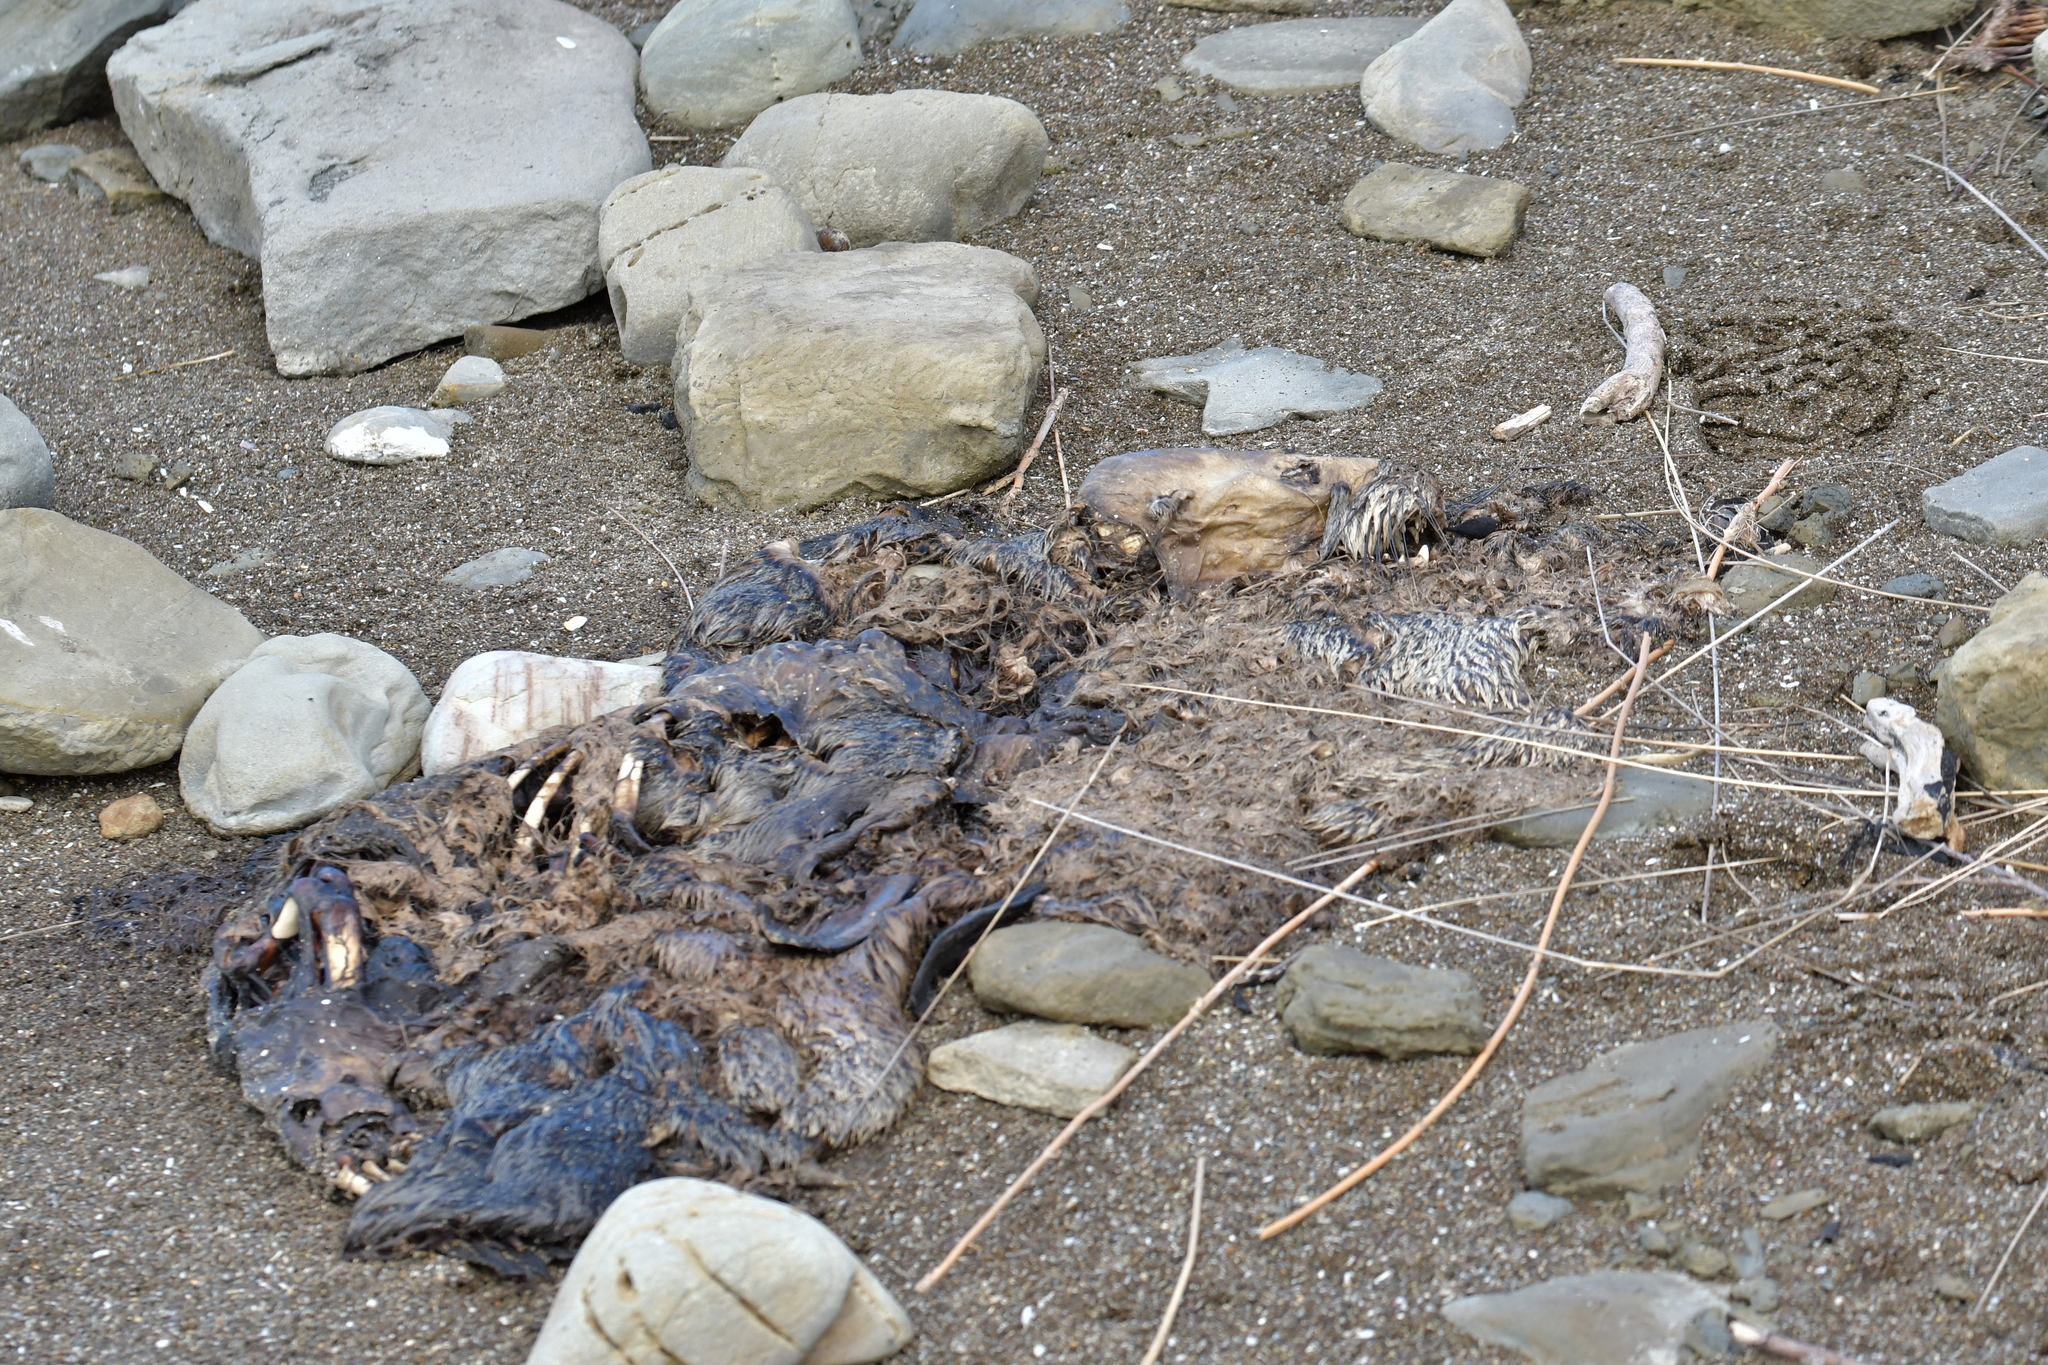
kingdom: Animalia
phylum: Chordata
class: Mammalia
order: Carnivora
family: Otariidae
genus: Arctocephalus
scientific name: Arctocephalus forsteri
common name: New zealand fur seal
